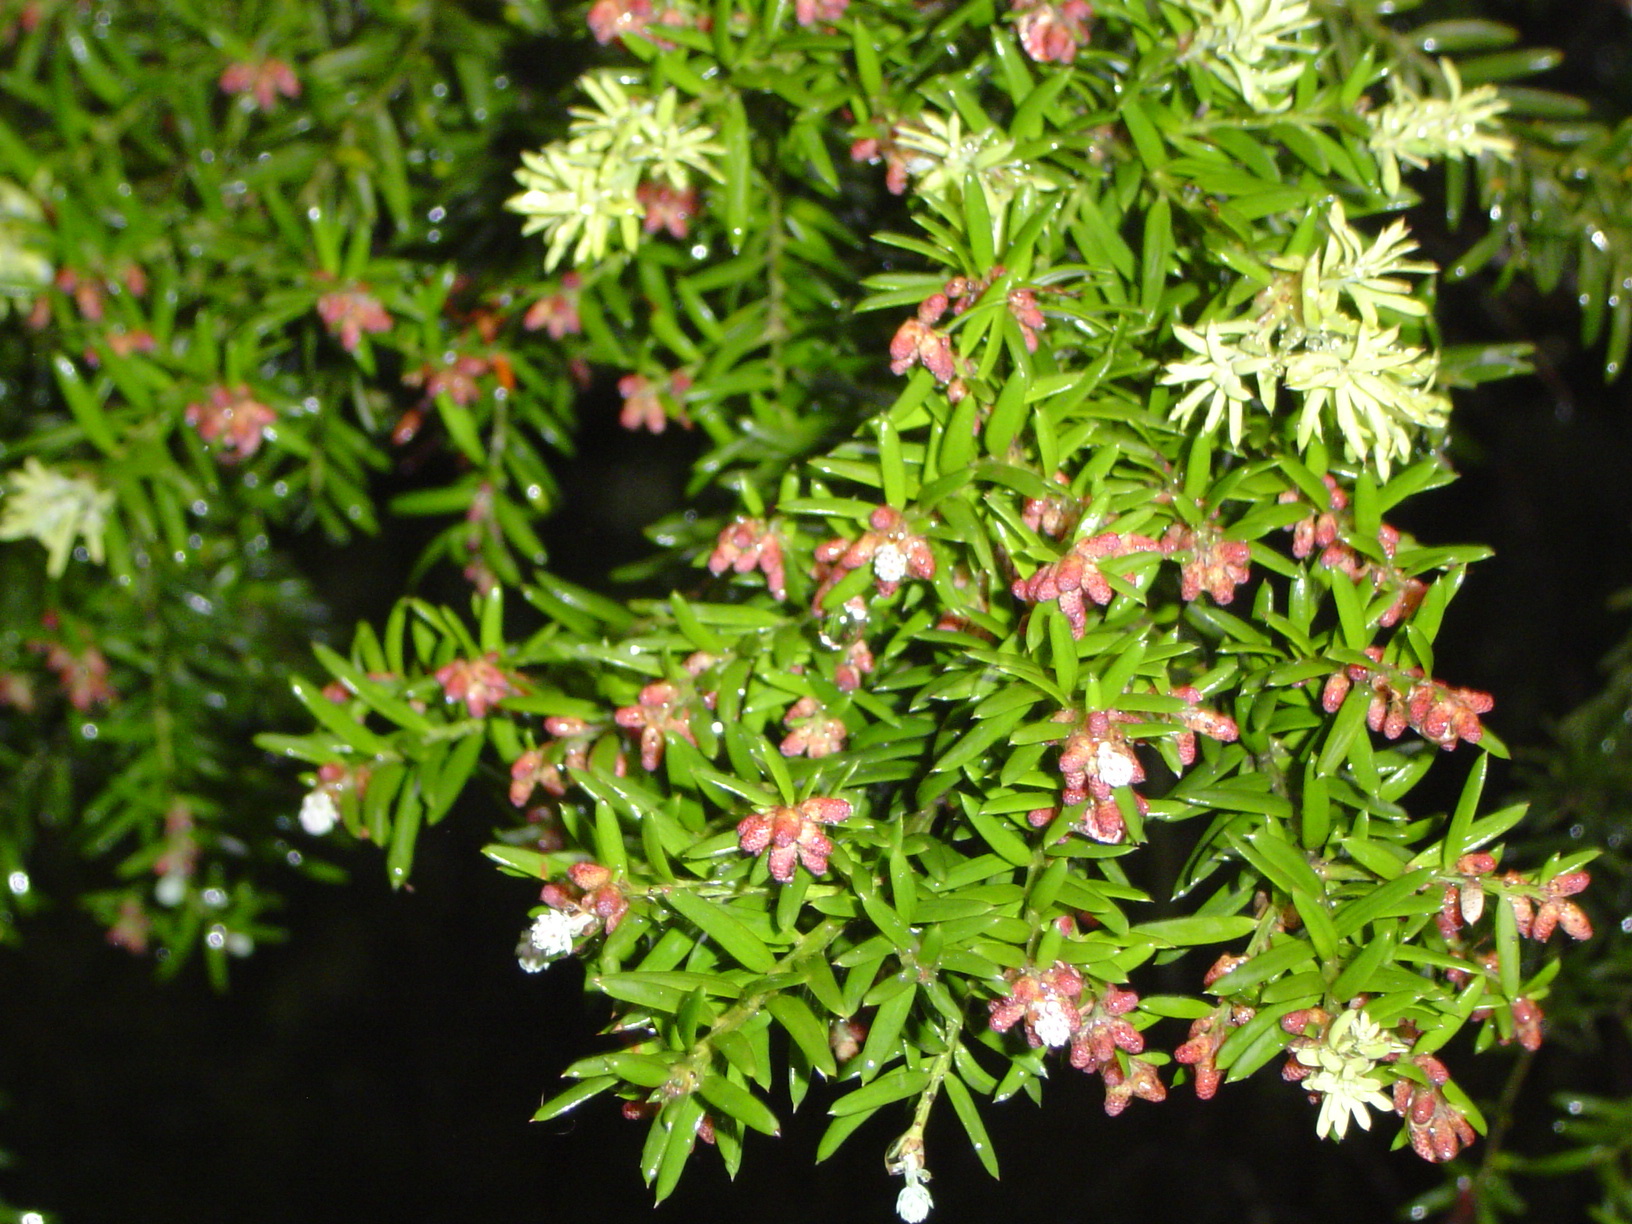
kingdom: Plantae
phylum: Tracheophyta
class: Pinopsida
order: Pinales
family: Podocarpaceae
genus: Saxegothaea
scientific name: Saxegothaea conspicua
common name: Prince albert's yew
